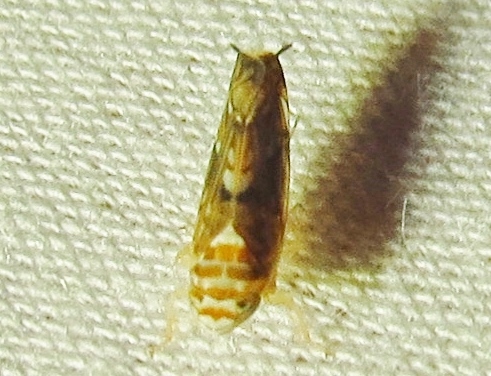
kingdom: Animalia
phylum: Arthropoda
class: Insecta
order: Hemiptera
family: Cicadellidae
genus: Scaphoideus
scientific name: Scaphoideus bifurcatus
